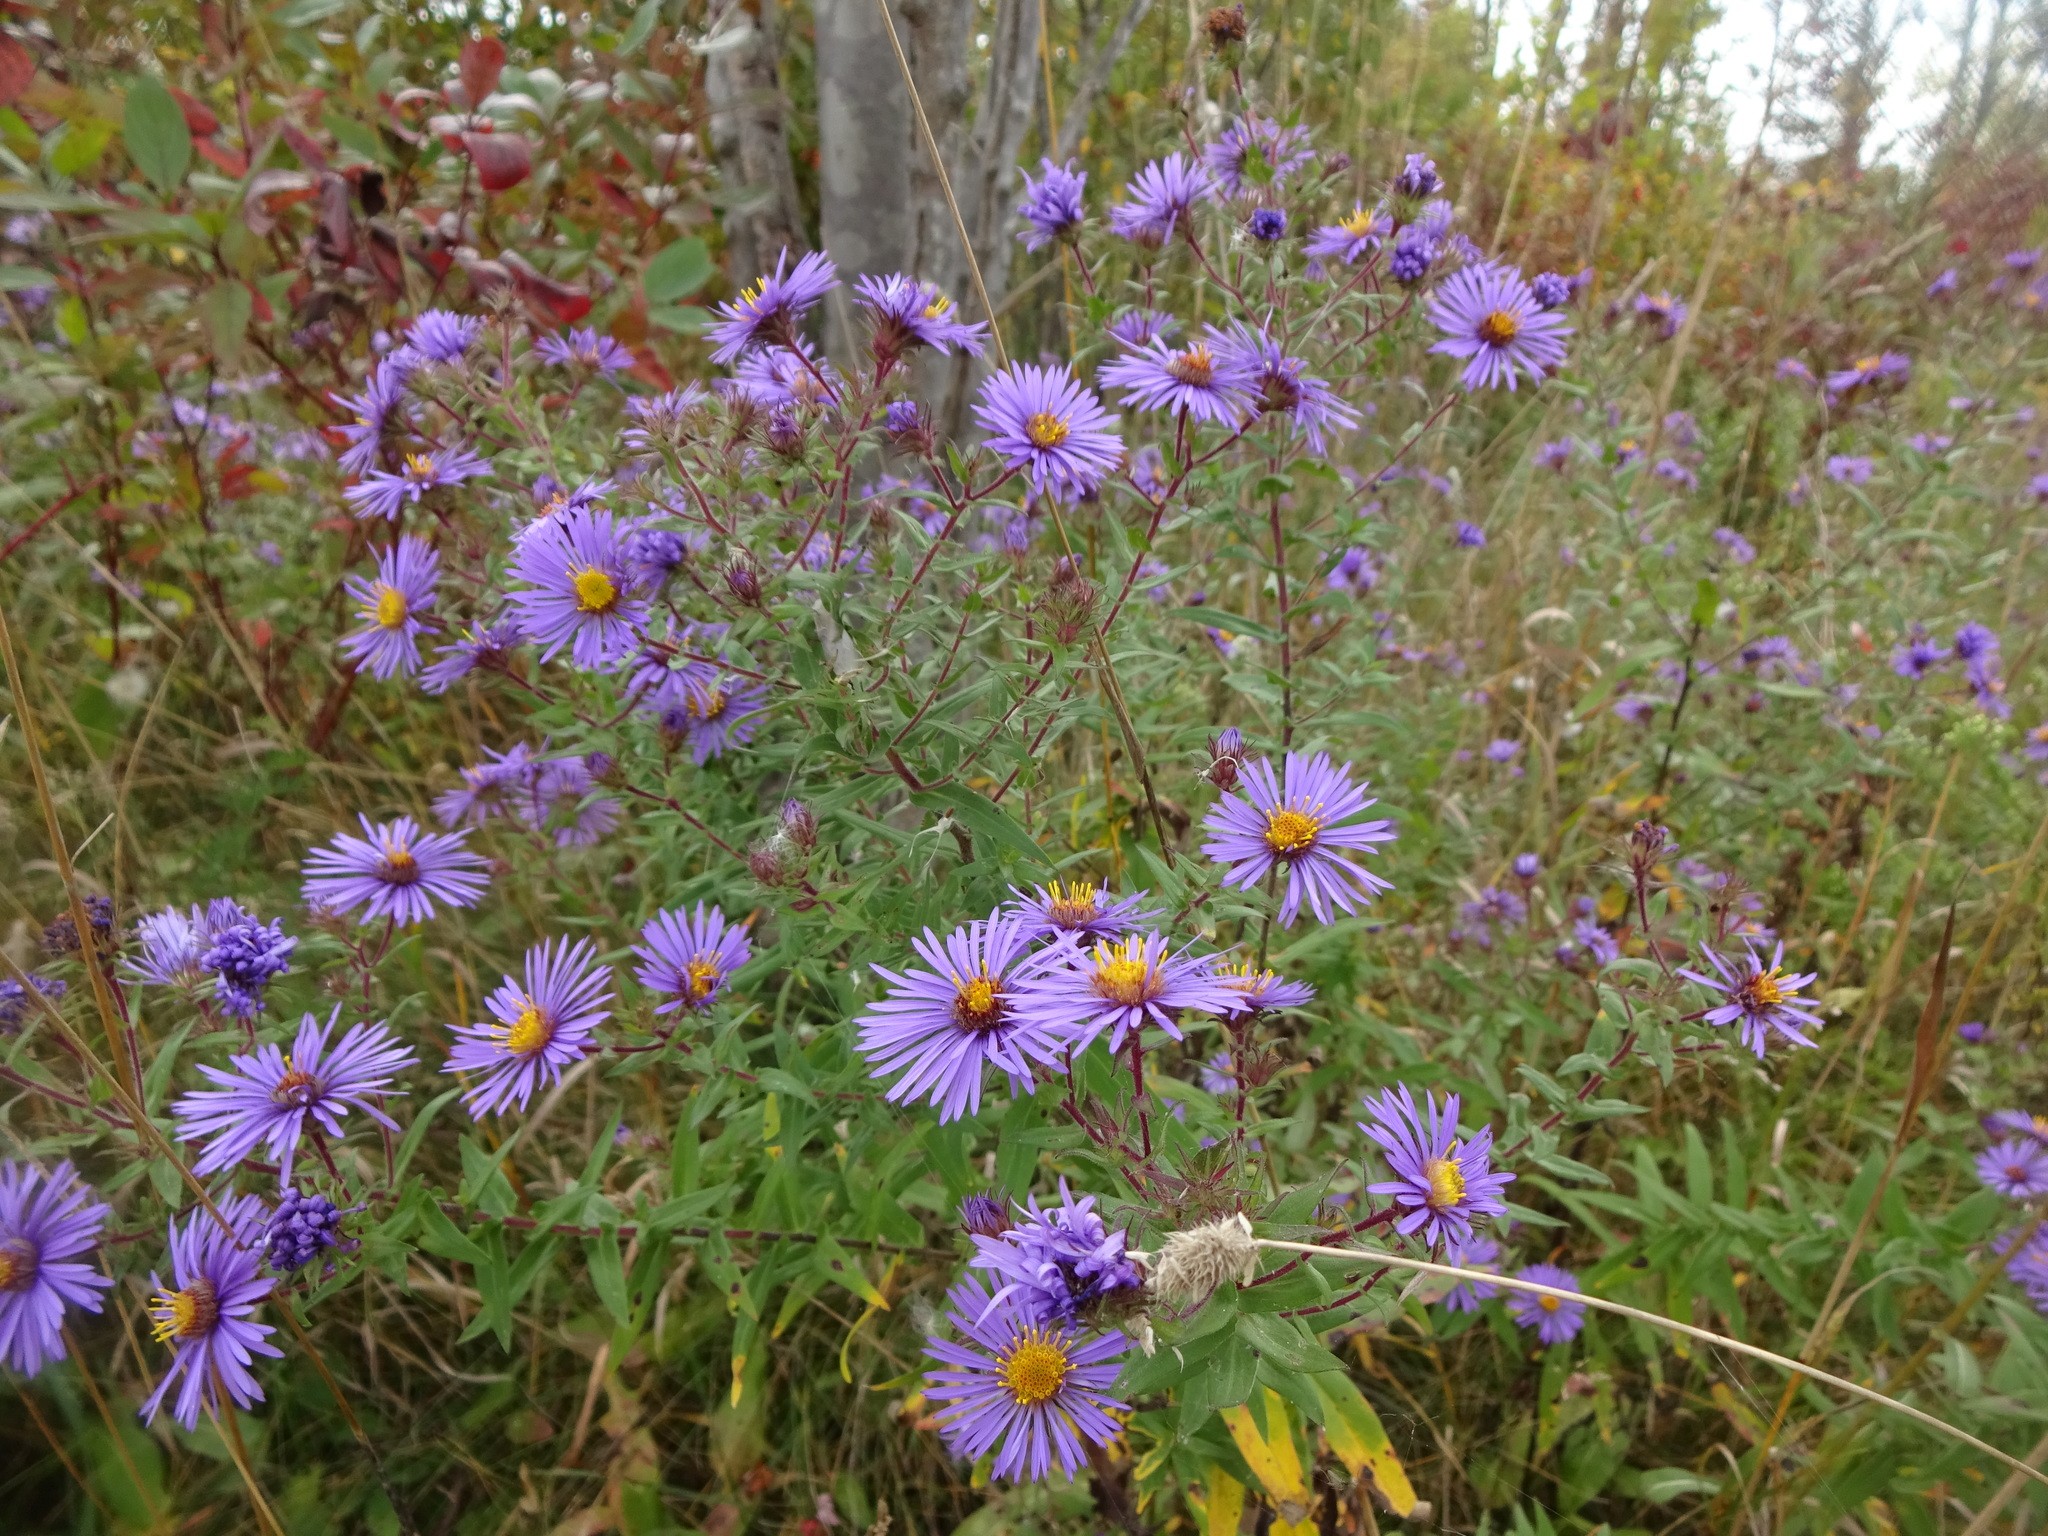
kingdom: Plantae
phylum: Tracheophyta
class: Magnoliopsida
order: Asterales
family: Asteraceae
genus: Symphyotrichum
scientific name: Symphyotrichum novae-angliae
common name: Michaelmas daisy
